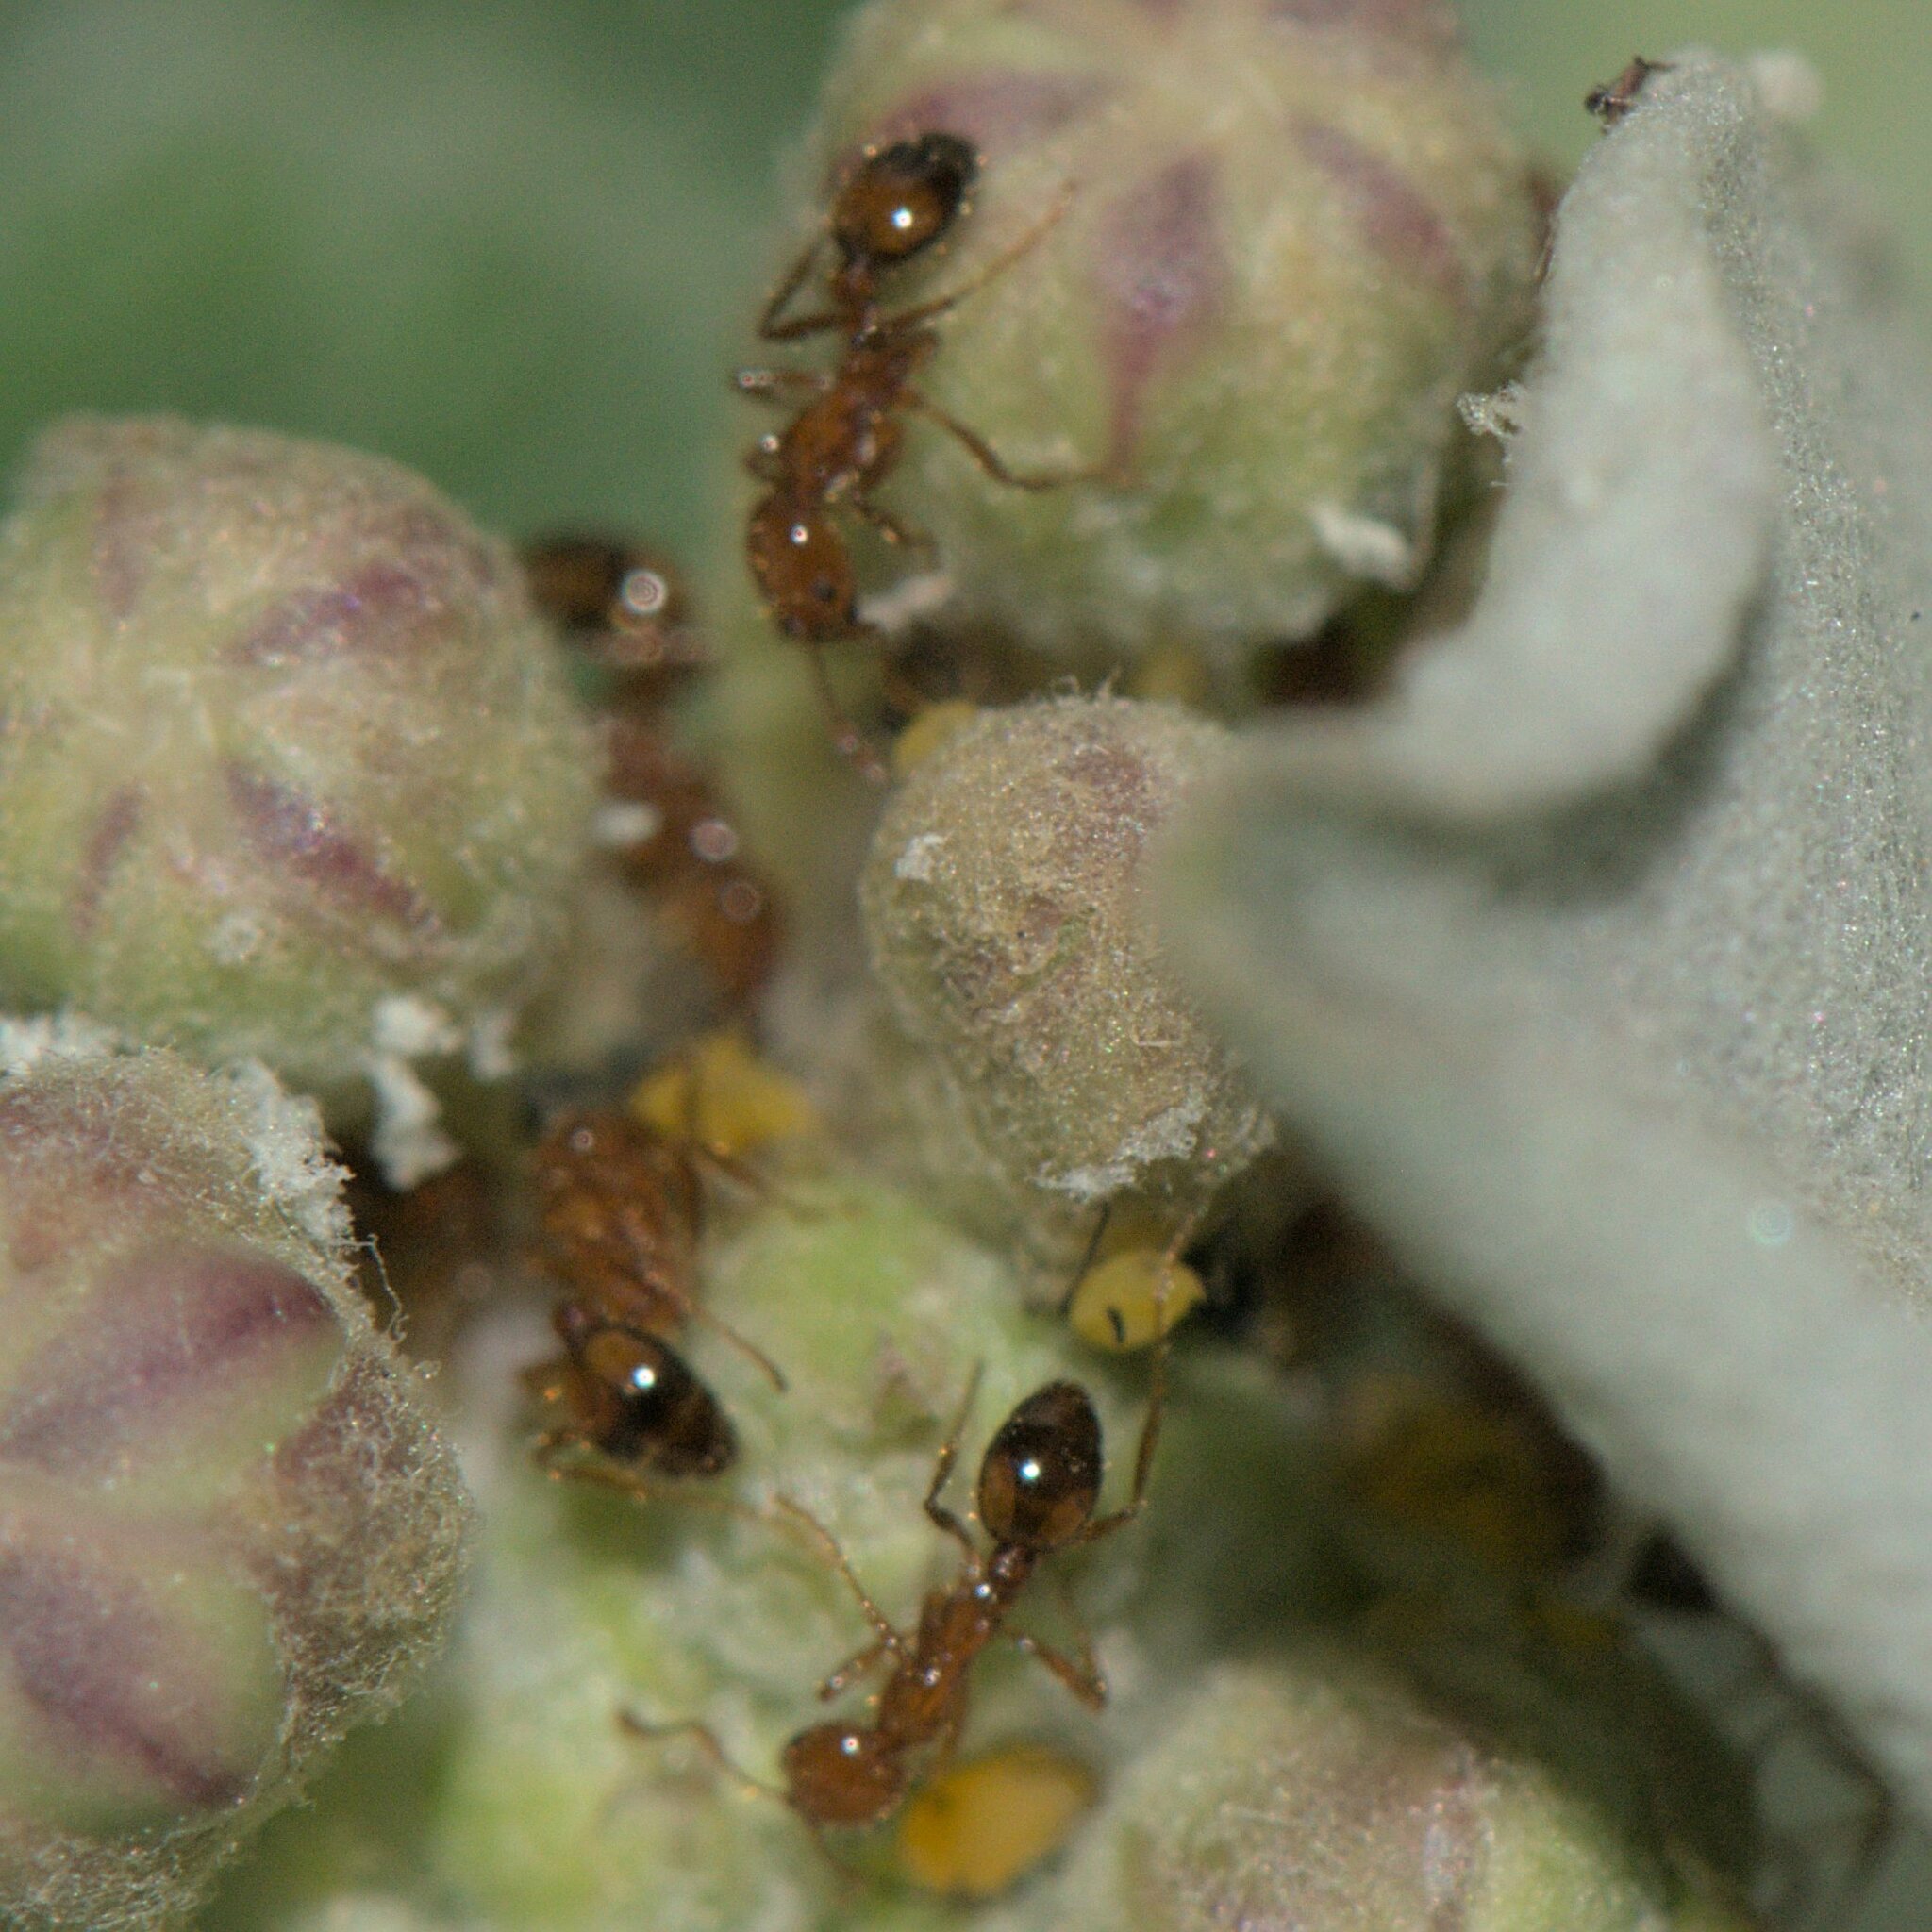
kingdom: Animalia
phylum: Arthropoda
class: Insecta
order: Hymenoptera
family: Formicidae
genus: Solenopsis
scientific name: Solenopsis geminata
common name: Tropical fire ant
